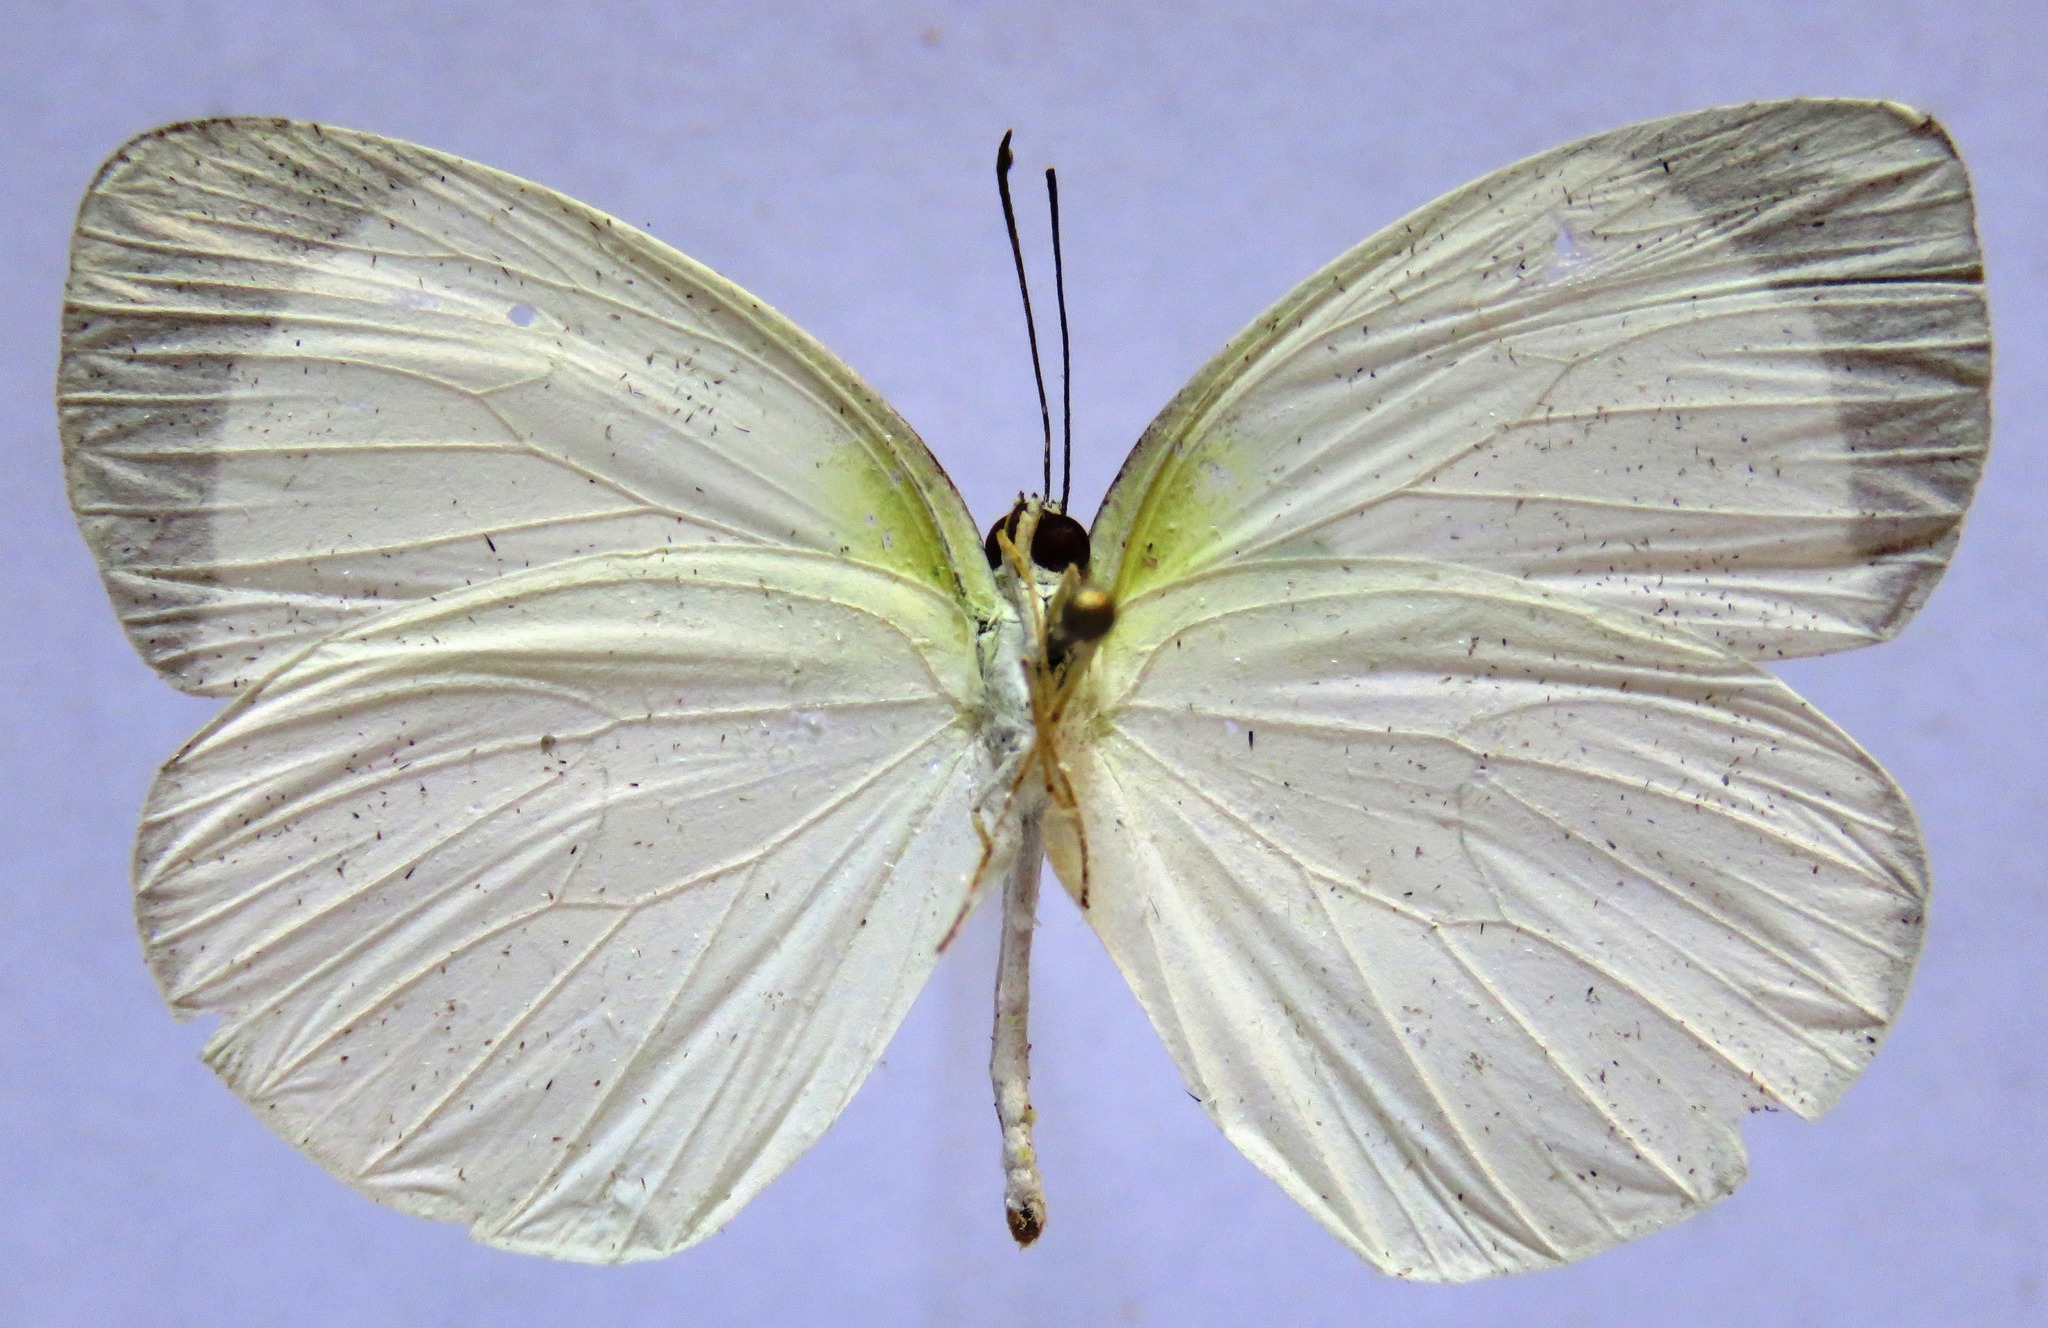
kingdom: Animalia
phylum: Arthropoda
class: Insecta
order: Lepidoptera
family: Pieridae
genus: Abaeis
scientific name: Abaeis albula
